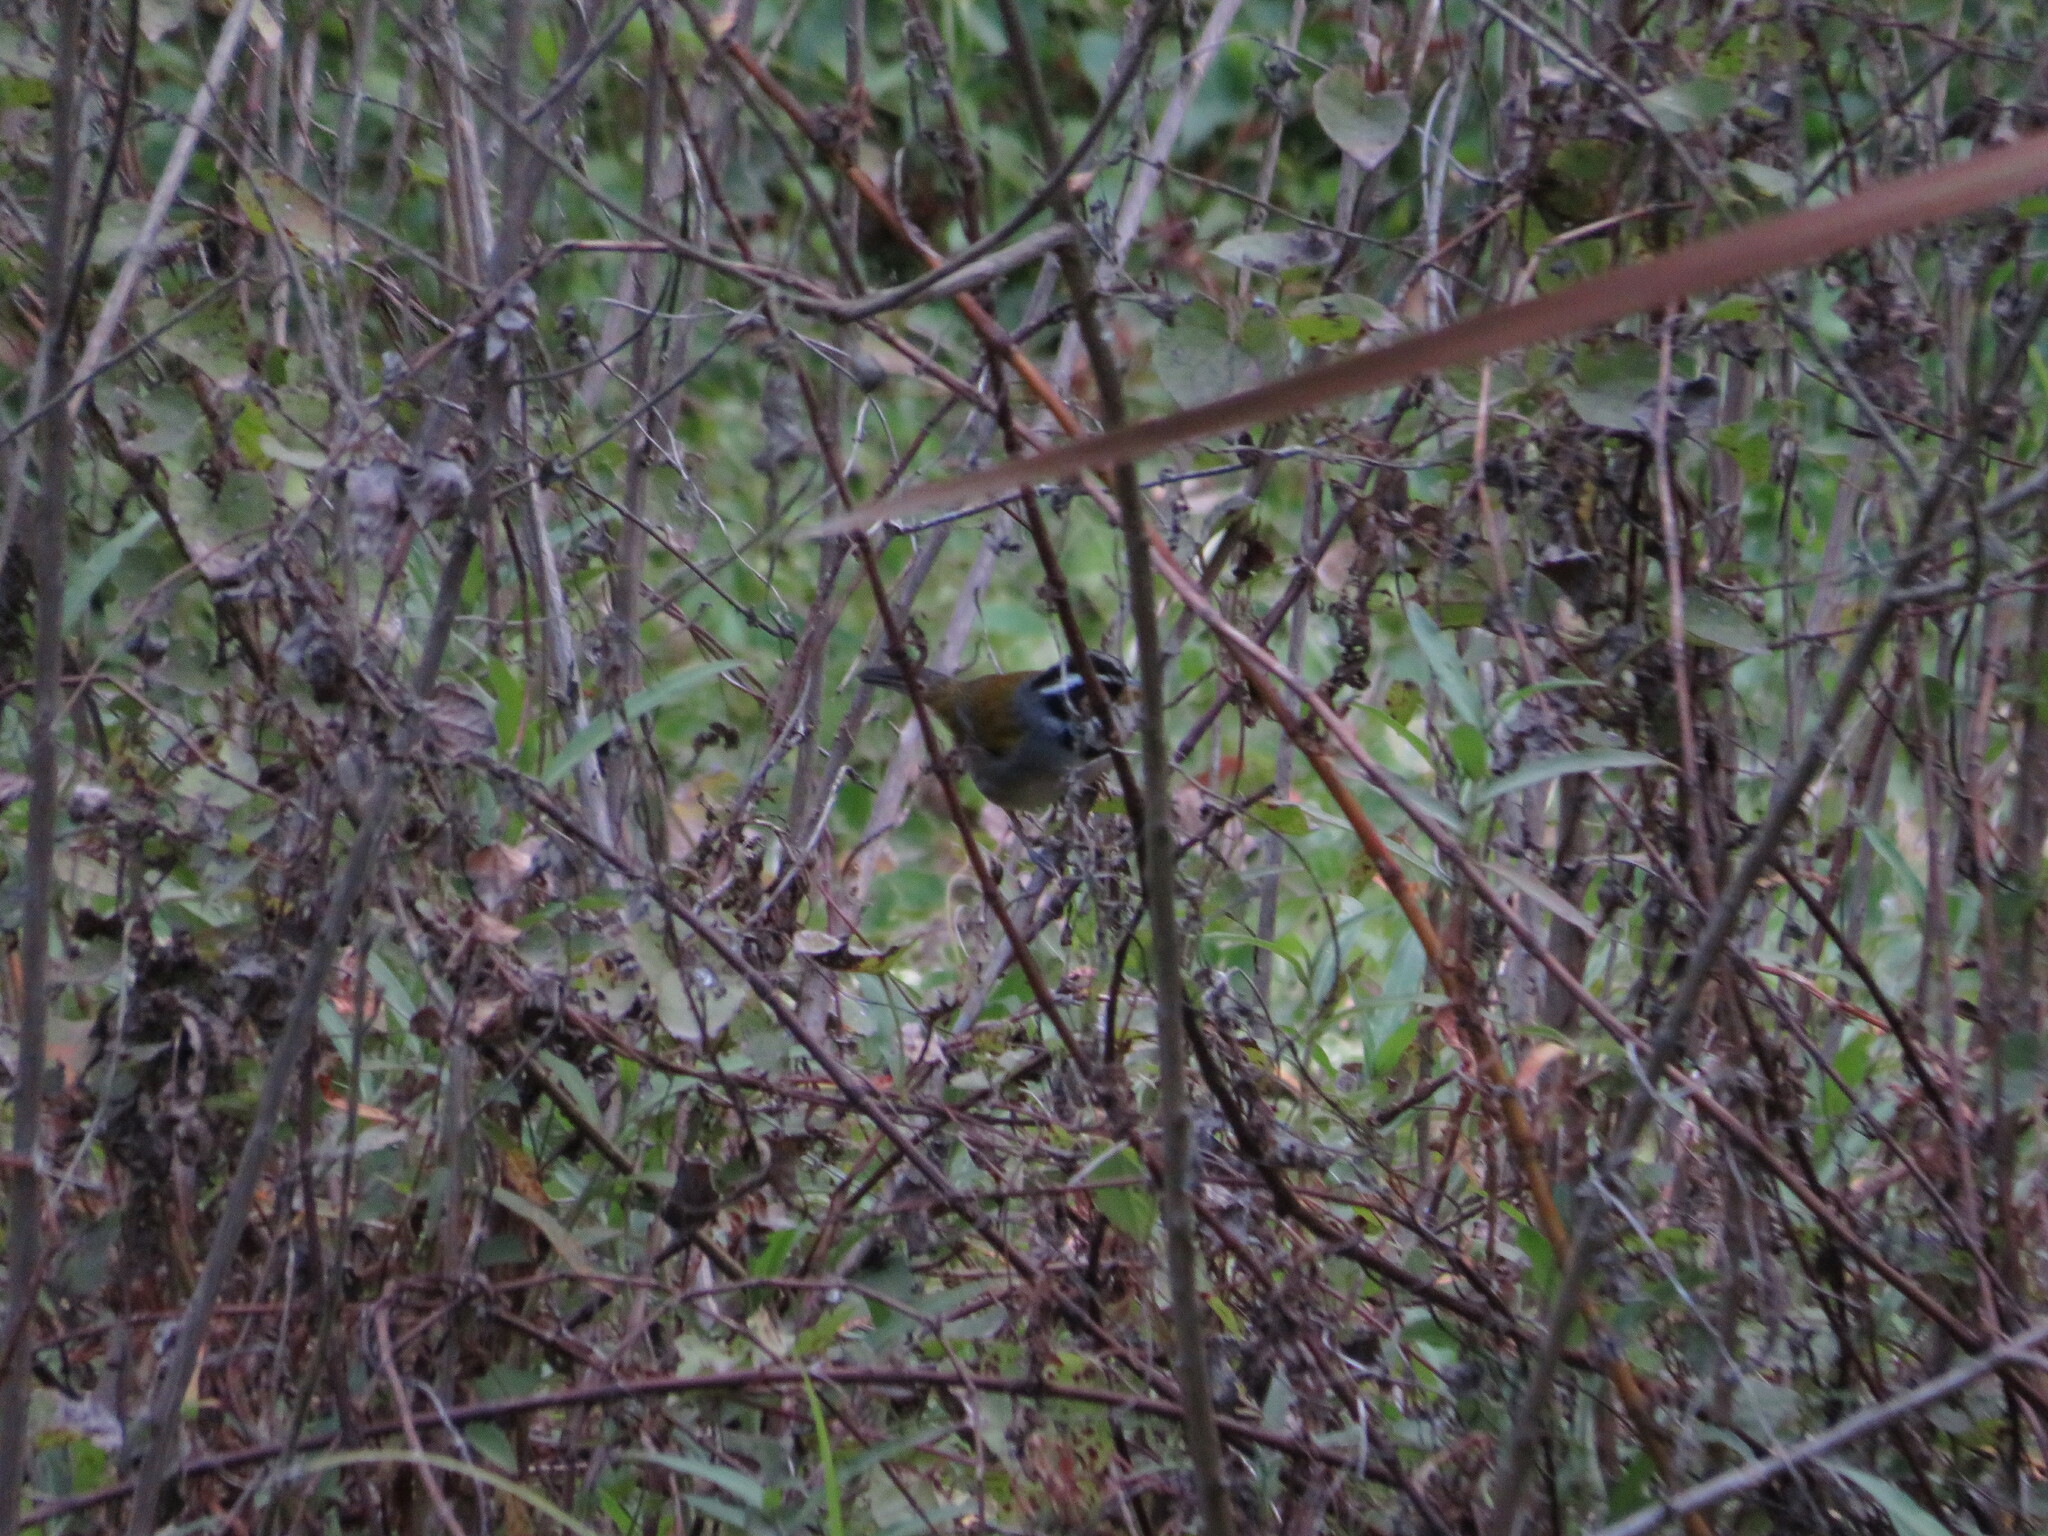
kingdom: Animalia
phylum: Chordata
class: Aves
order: Passeriformes
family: Passerellidae
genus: Arremon
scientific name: Arremon dorbignii
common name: Moss-backed sparrow
